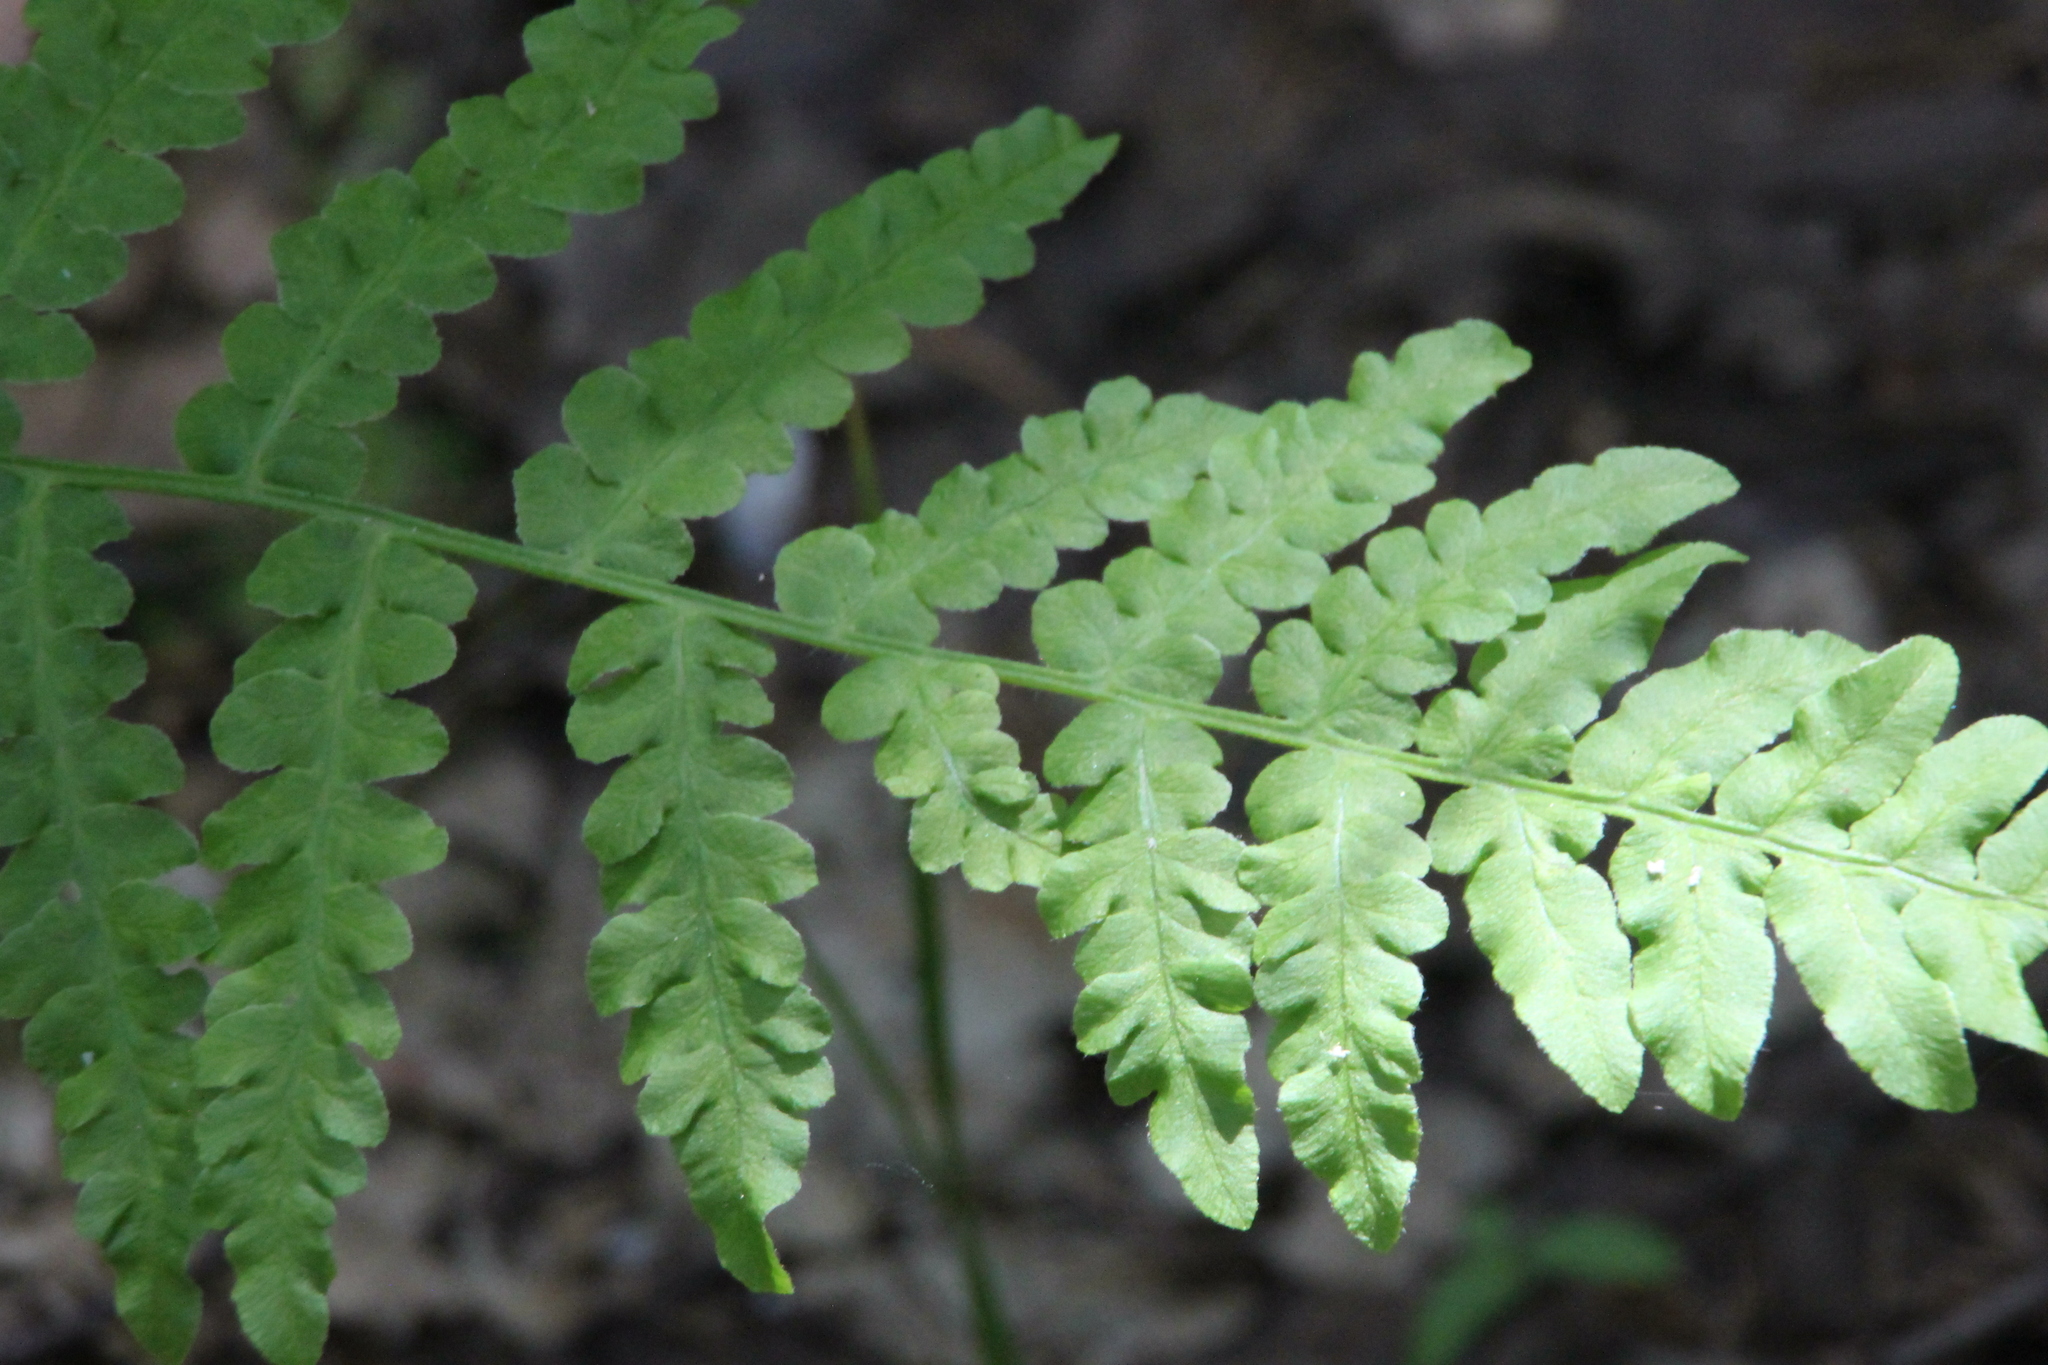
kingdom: Plantae
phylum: Tracheophyta
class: Polypodiopsida
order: Polypodiales
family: Dennstaedtiaceae
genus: Pteridium
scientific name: Pteridium aquilinum
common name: Bracken
